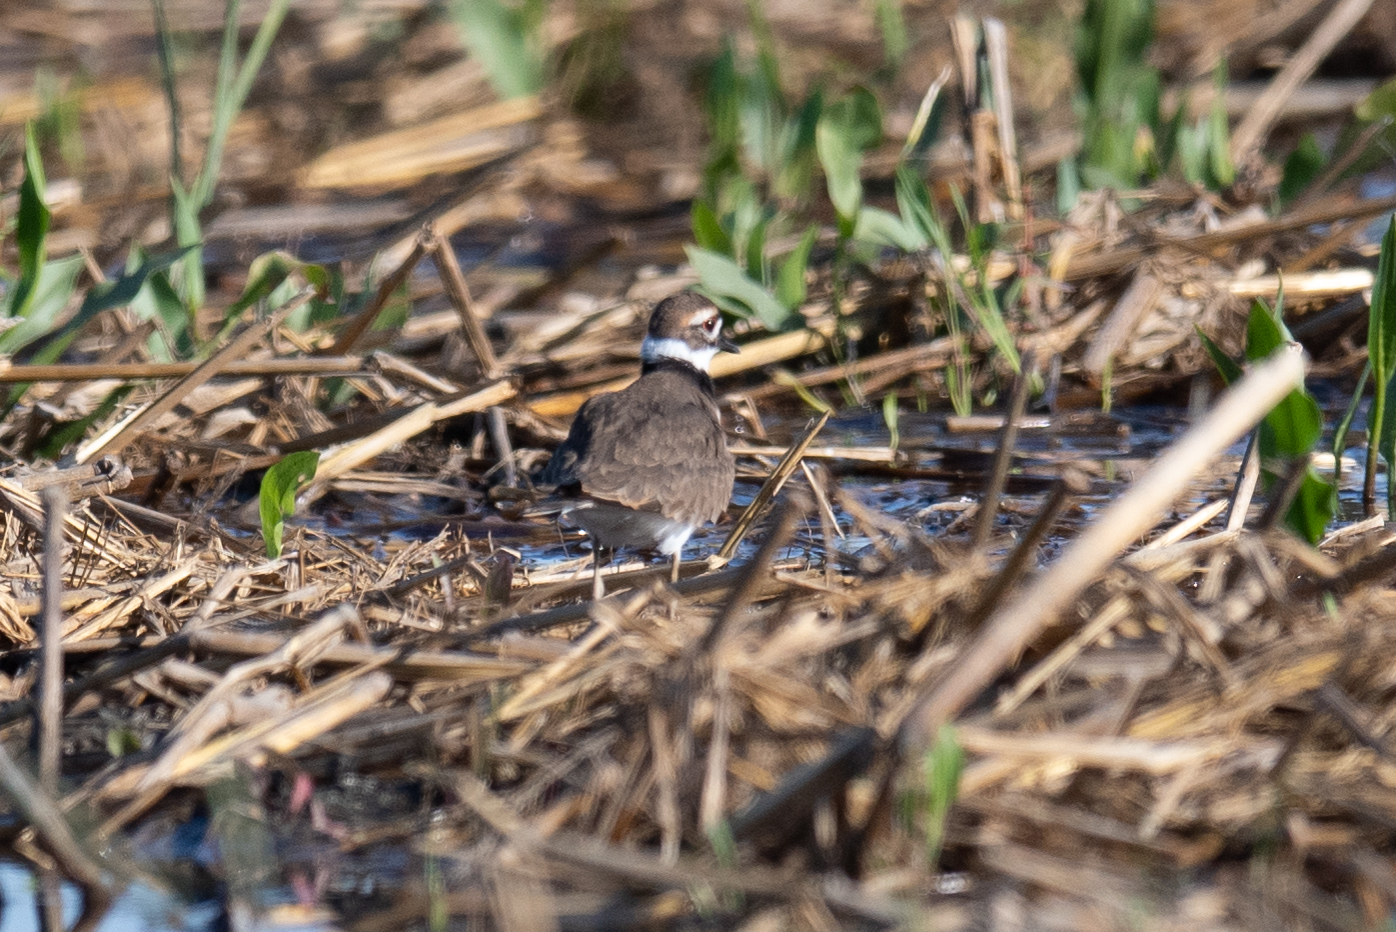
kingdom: Animalia
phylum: Chordata
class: Aves
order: Charadriiformes
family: Charadriidae
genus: Charadrius
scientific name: Charadrius vociferus
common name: Killdeer
